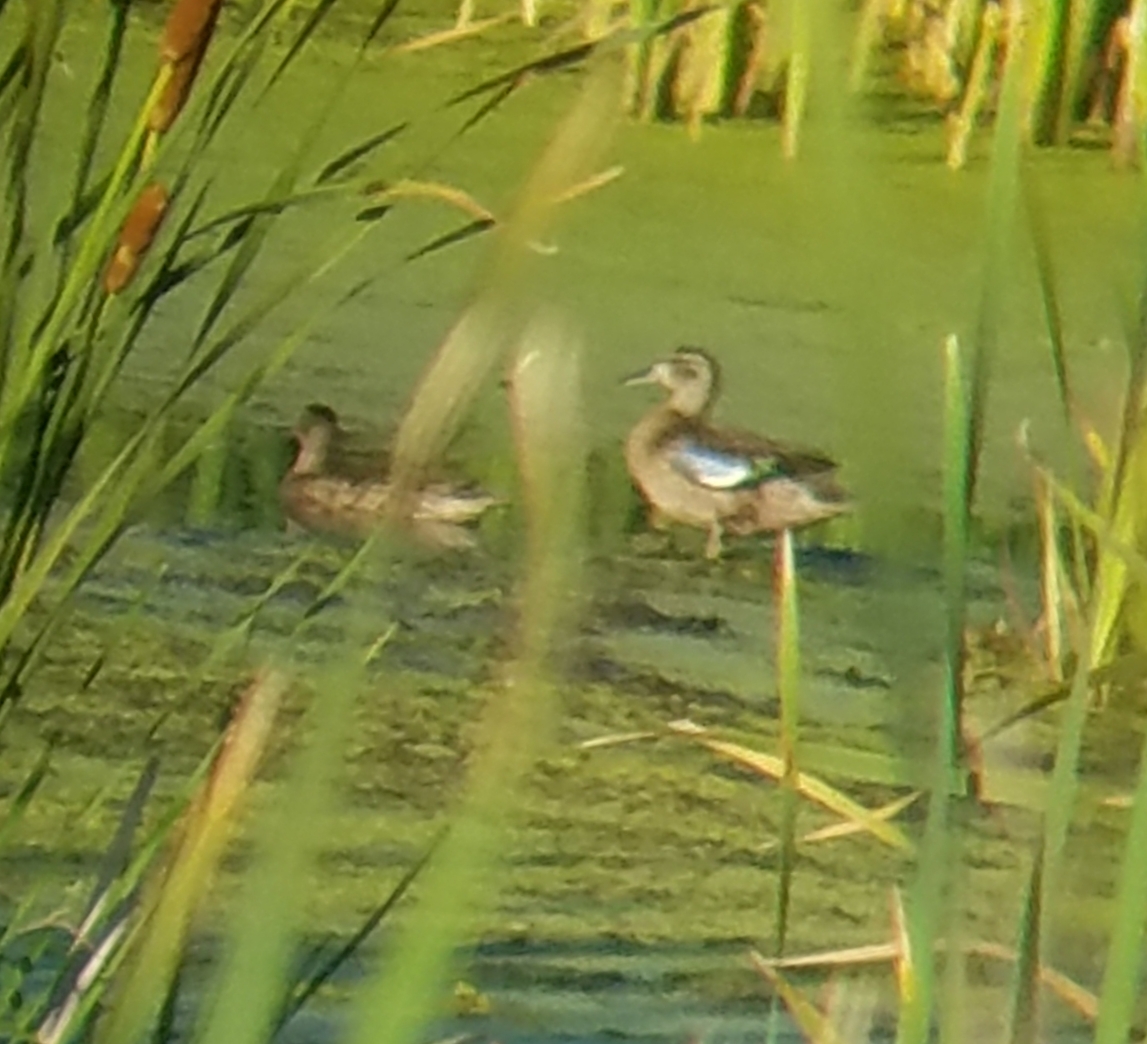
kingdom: Animalia
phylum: Chordata
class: Aves
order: Anseriformes
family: Anatidae
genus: Spatula
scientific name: Spatula discors
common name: Blue-winged teal
